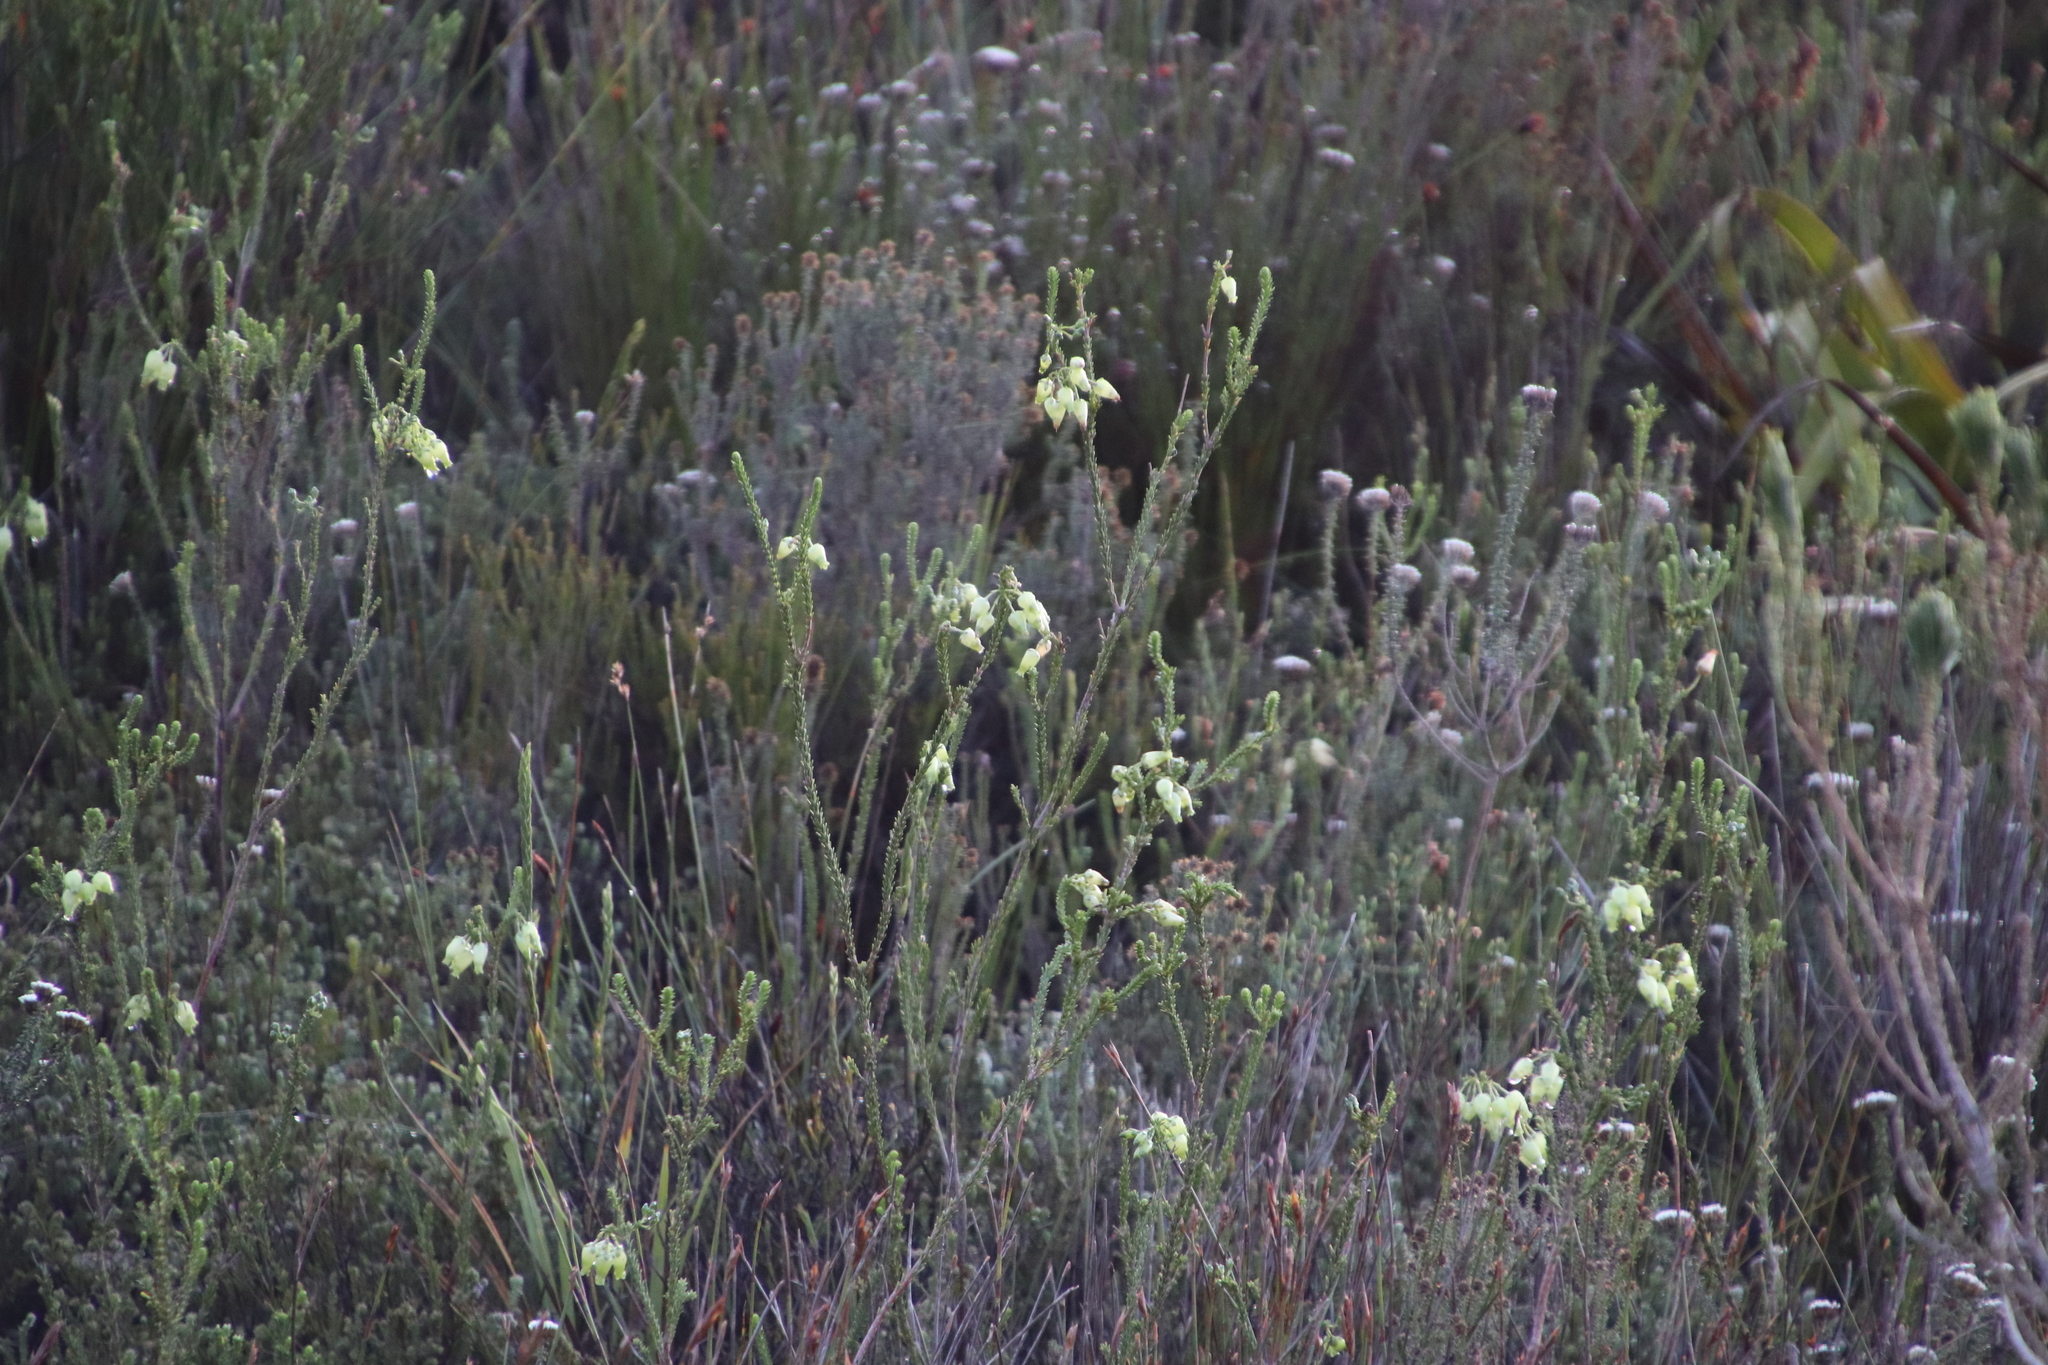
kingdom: Plantae
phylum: Tracheophyta
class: Magnoliopsida
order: Ericales
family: Ericaceae
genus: Erica
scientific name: Erica urna-viridis
